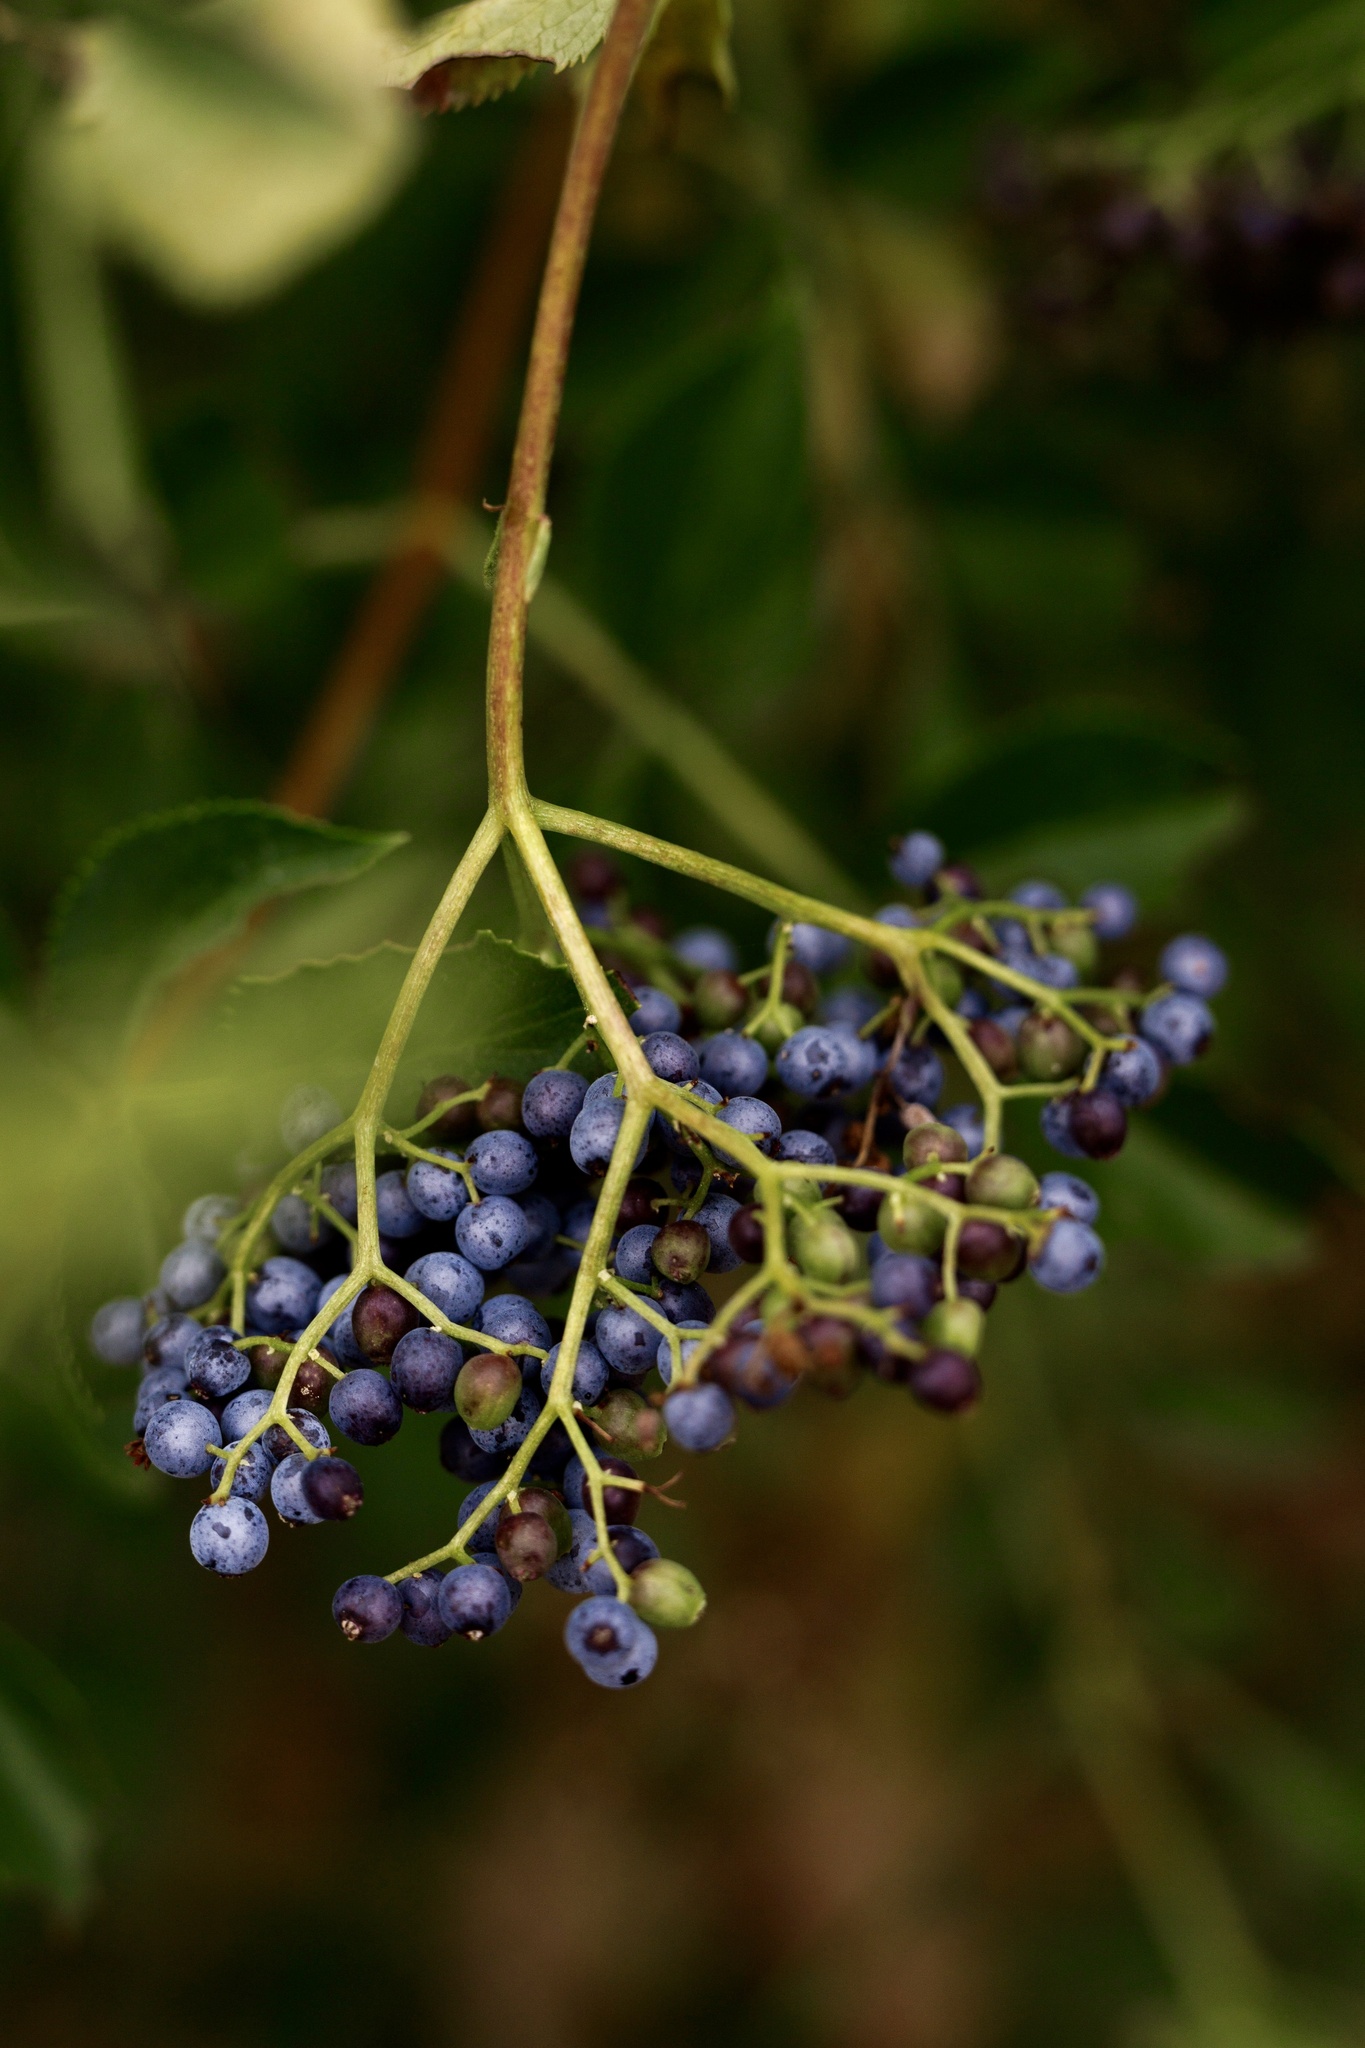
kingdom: Plantae
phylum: Tracheophyta
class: Magnoliopsida
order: Dipsacales
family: Viburnaceae
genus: Sambucus
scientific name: Sambucus cerulea
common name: Blue elder
